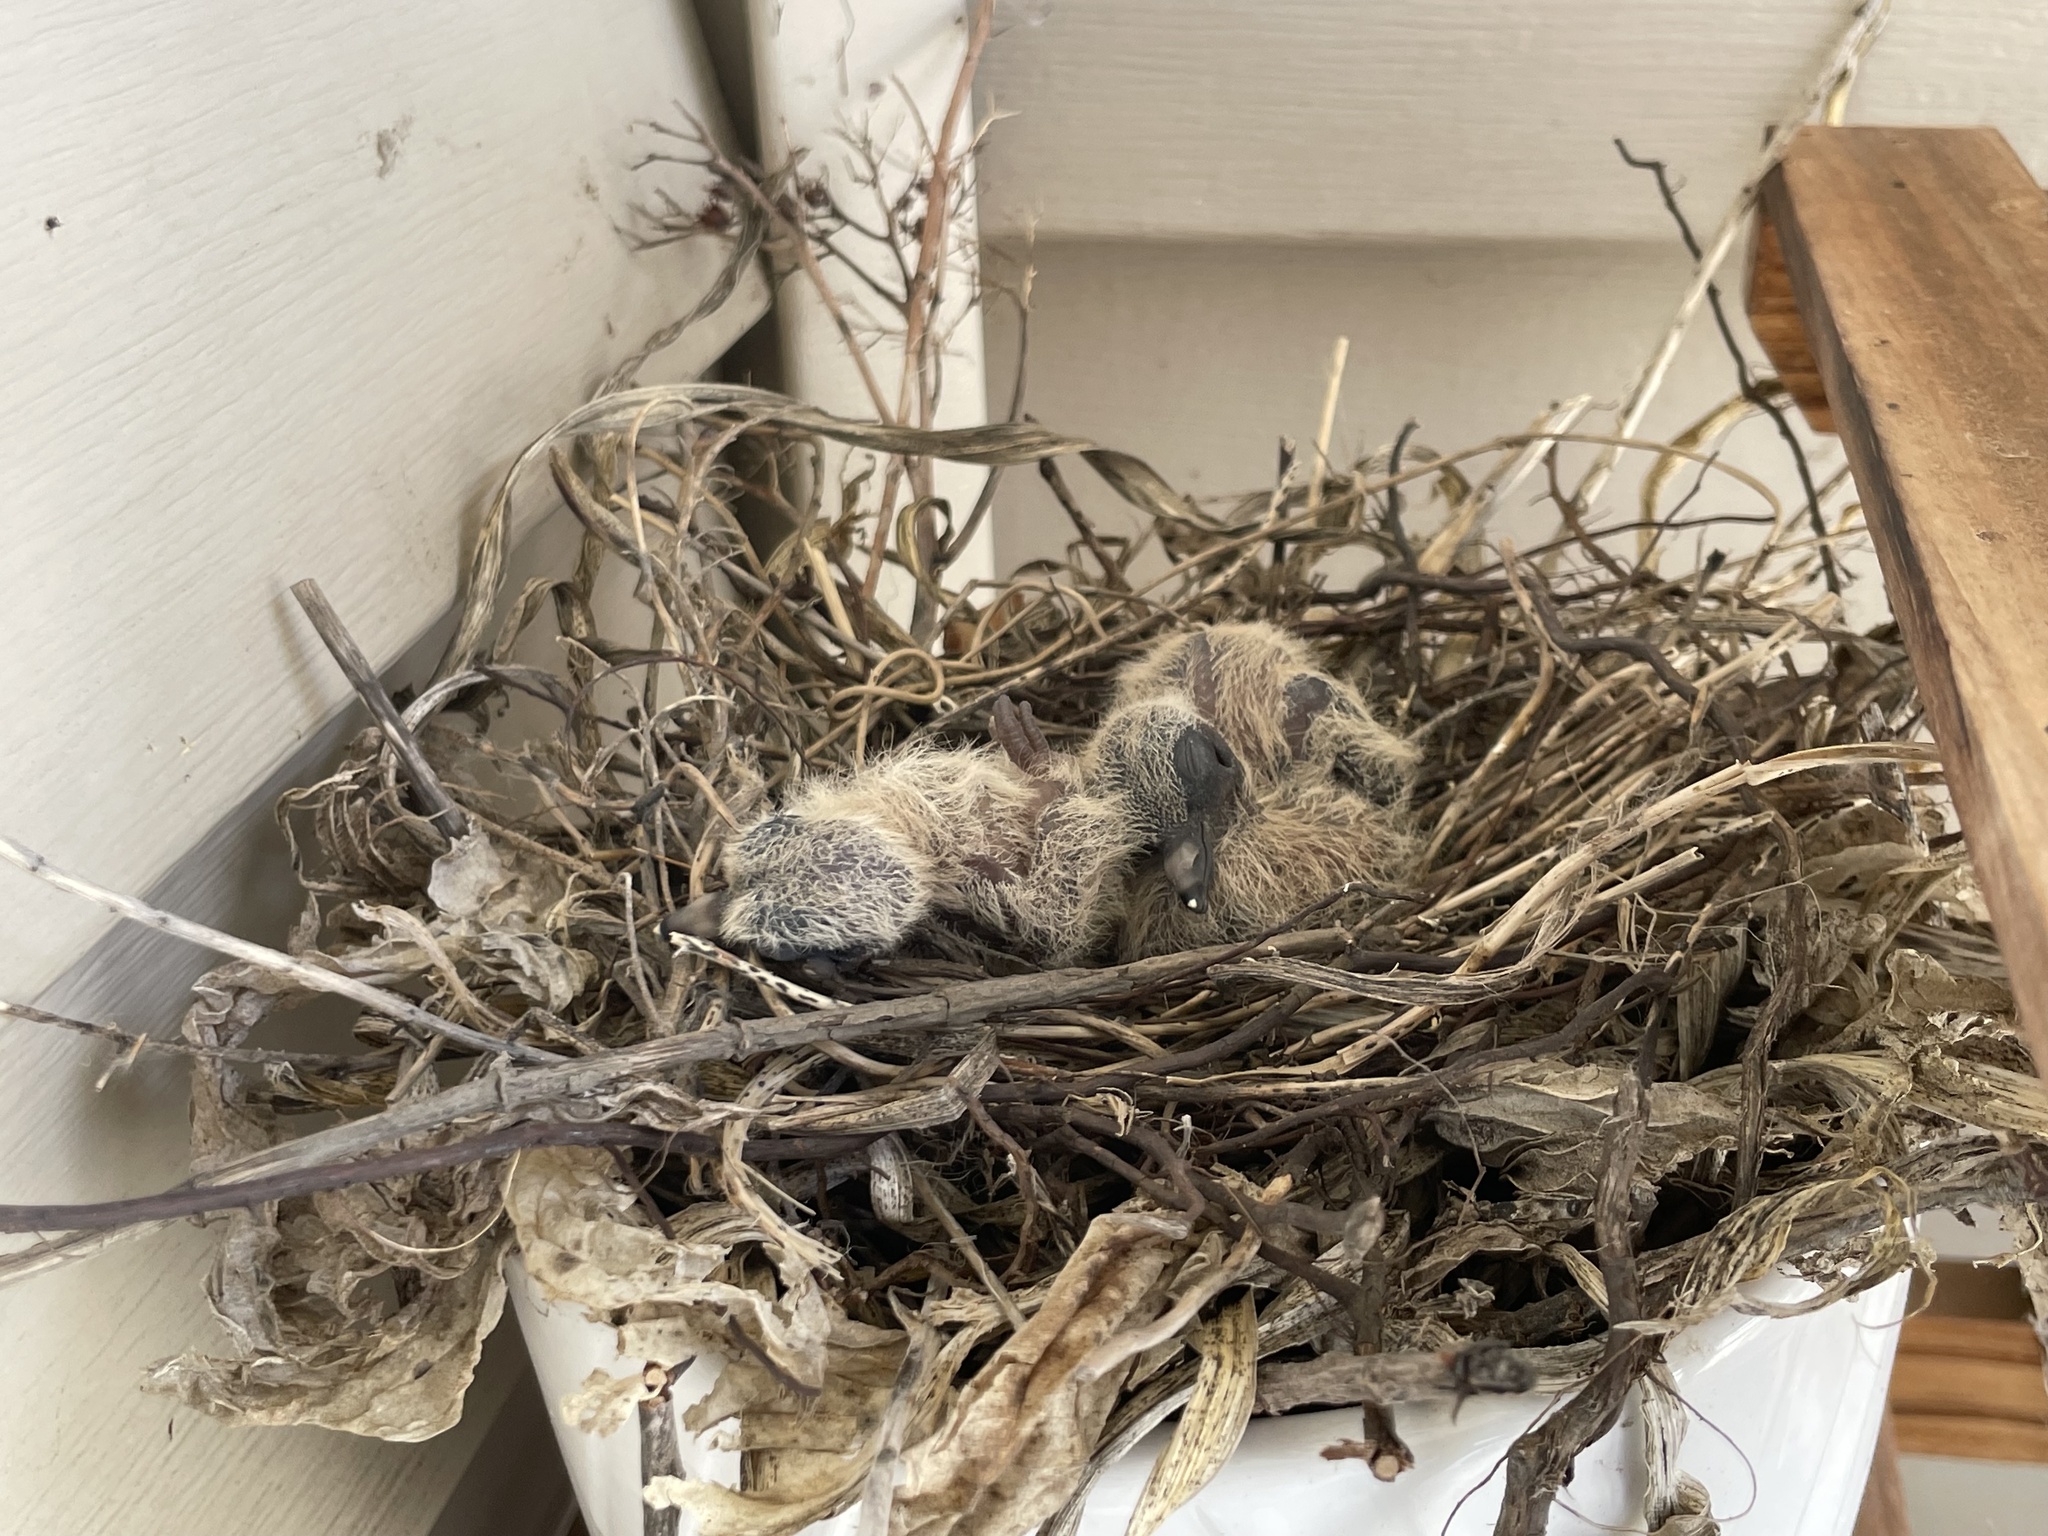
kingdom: Animalia
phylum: Chordata
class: Aves
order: Columbiformes
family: Columbidae
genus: Zenaida
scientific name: Zenaida macroura
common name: Mourning dove
